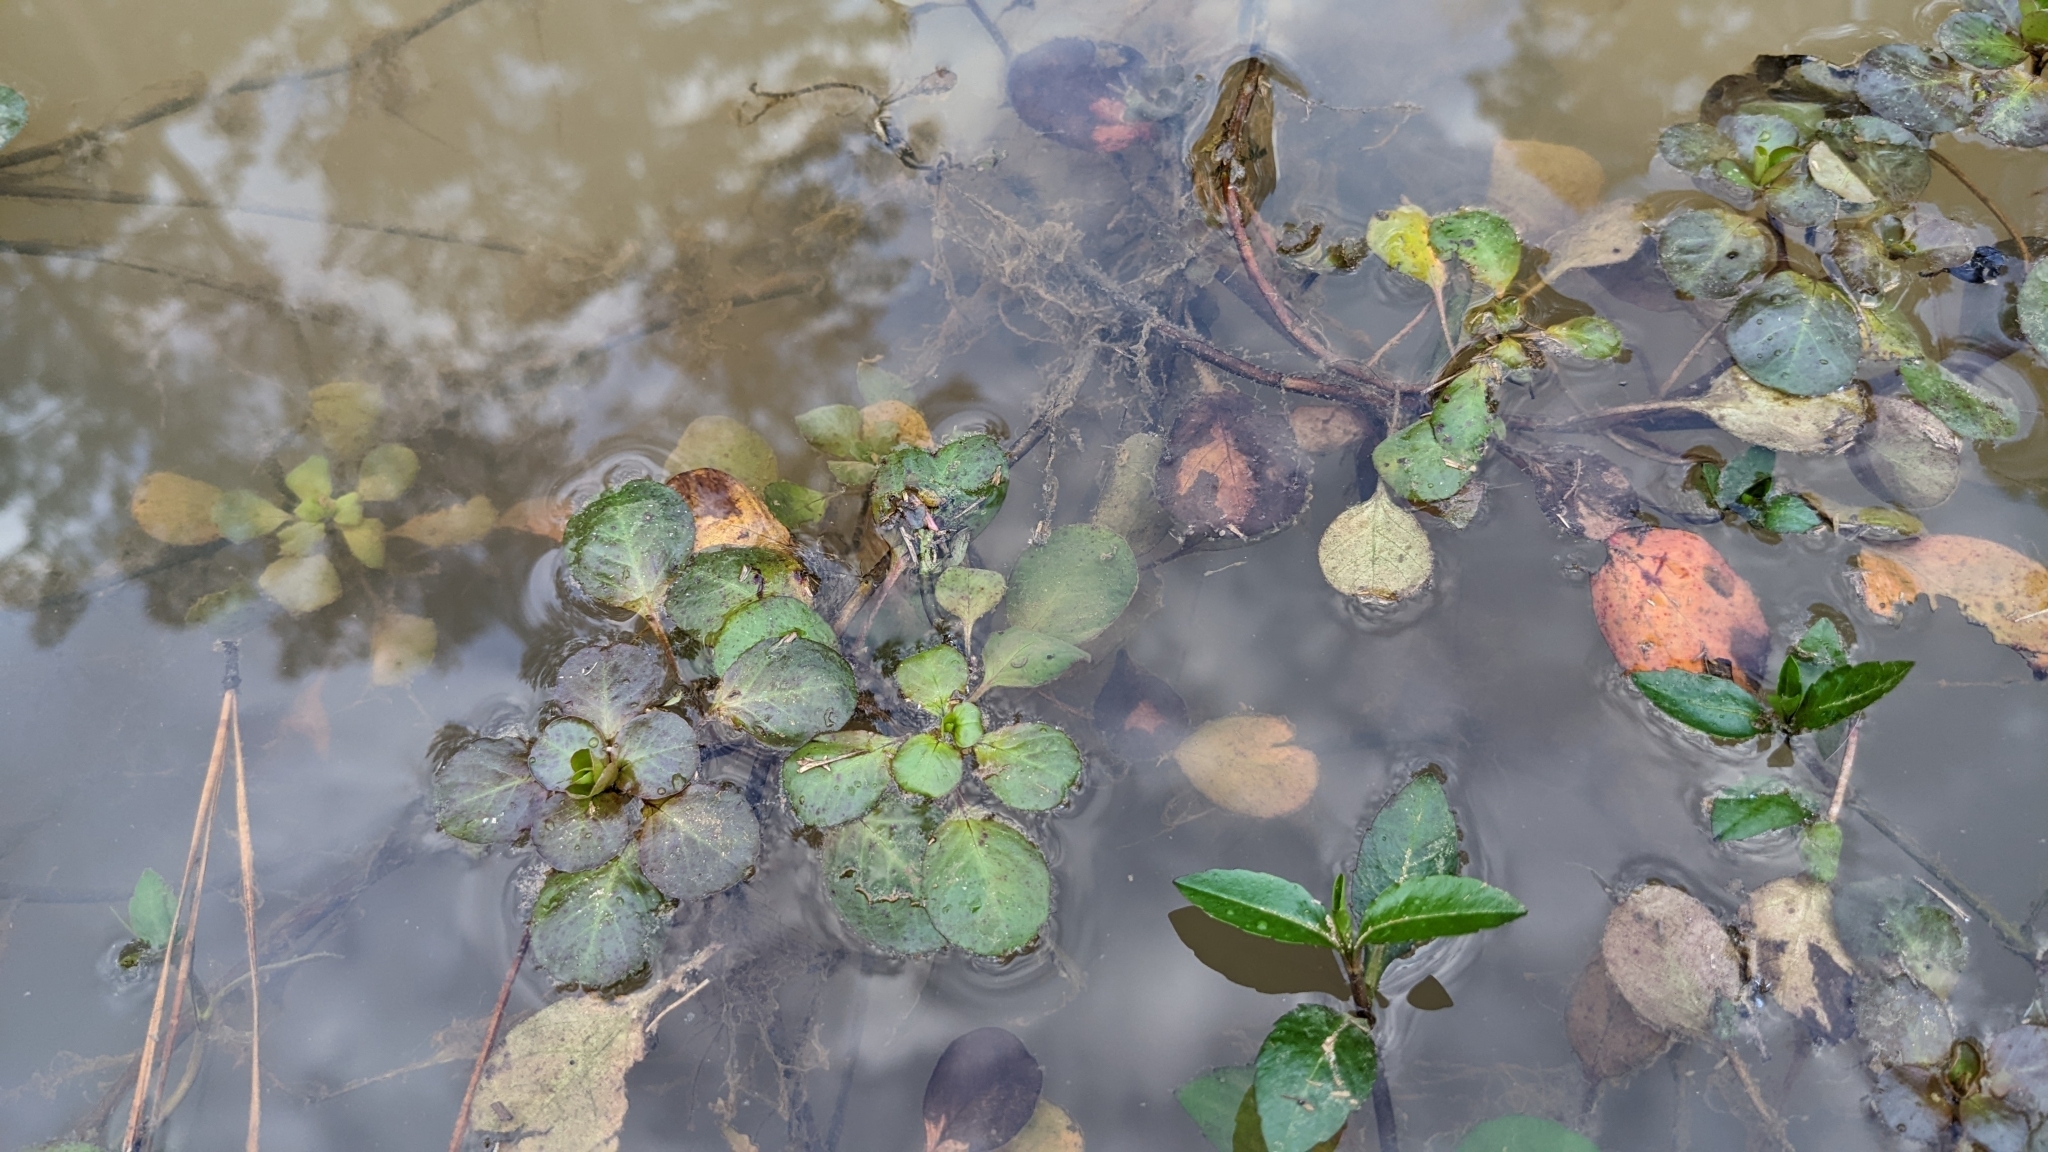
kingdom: Plantae
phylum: Tracheophyta
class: Magnoliopsida
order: Myrtales
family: Onagraceae
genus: Ludwigia
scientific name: Ludwigia peploides
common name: Floating primrose-willow
